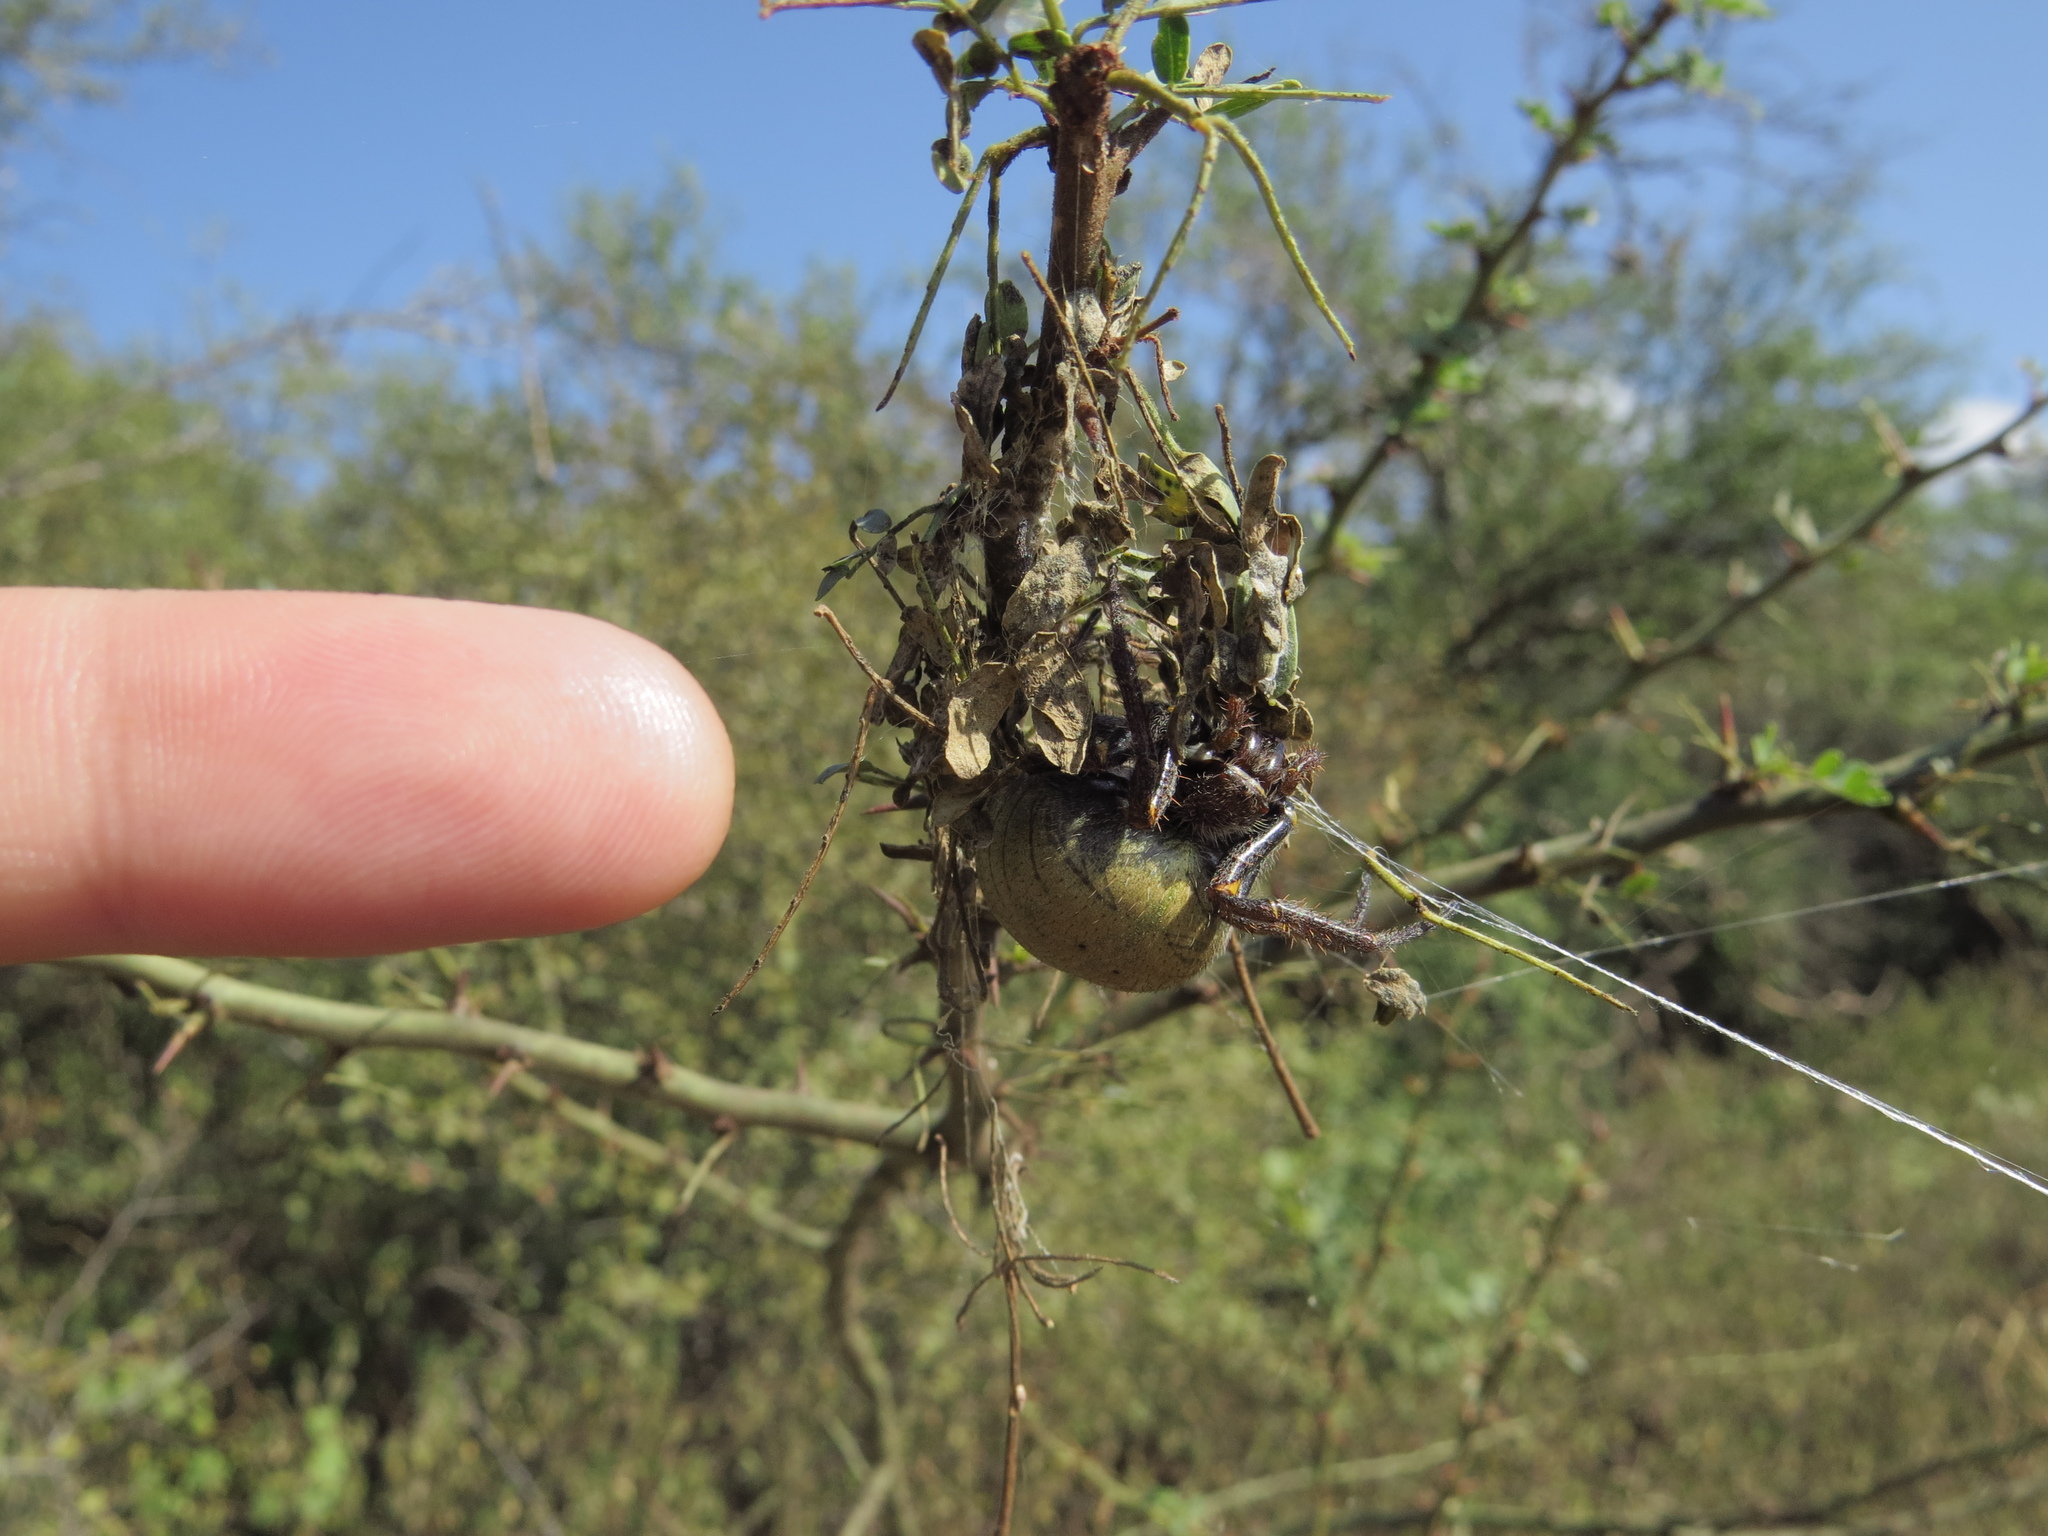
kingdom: Animalia
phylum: Arthropoda
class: Arachnida
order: Araneae
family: Araneidae
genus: Parawixia
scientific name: Parawixia bistriata
